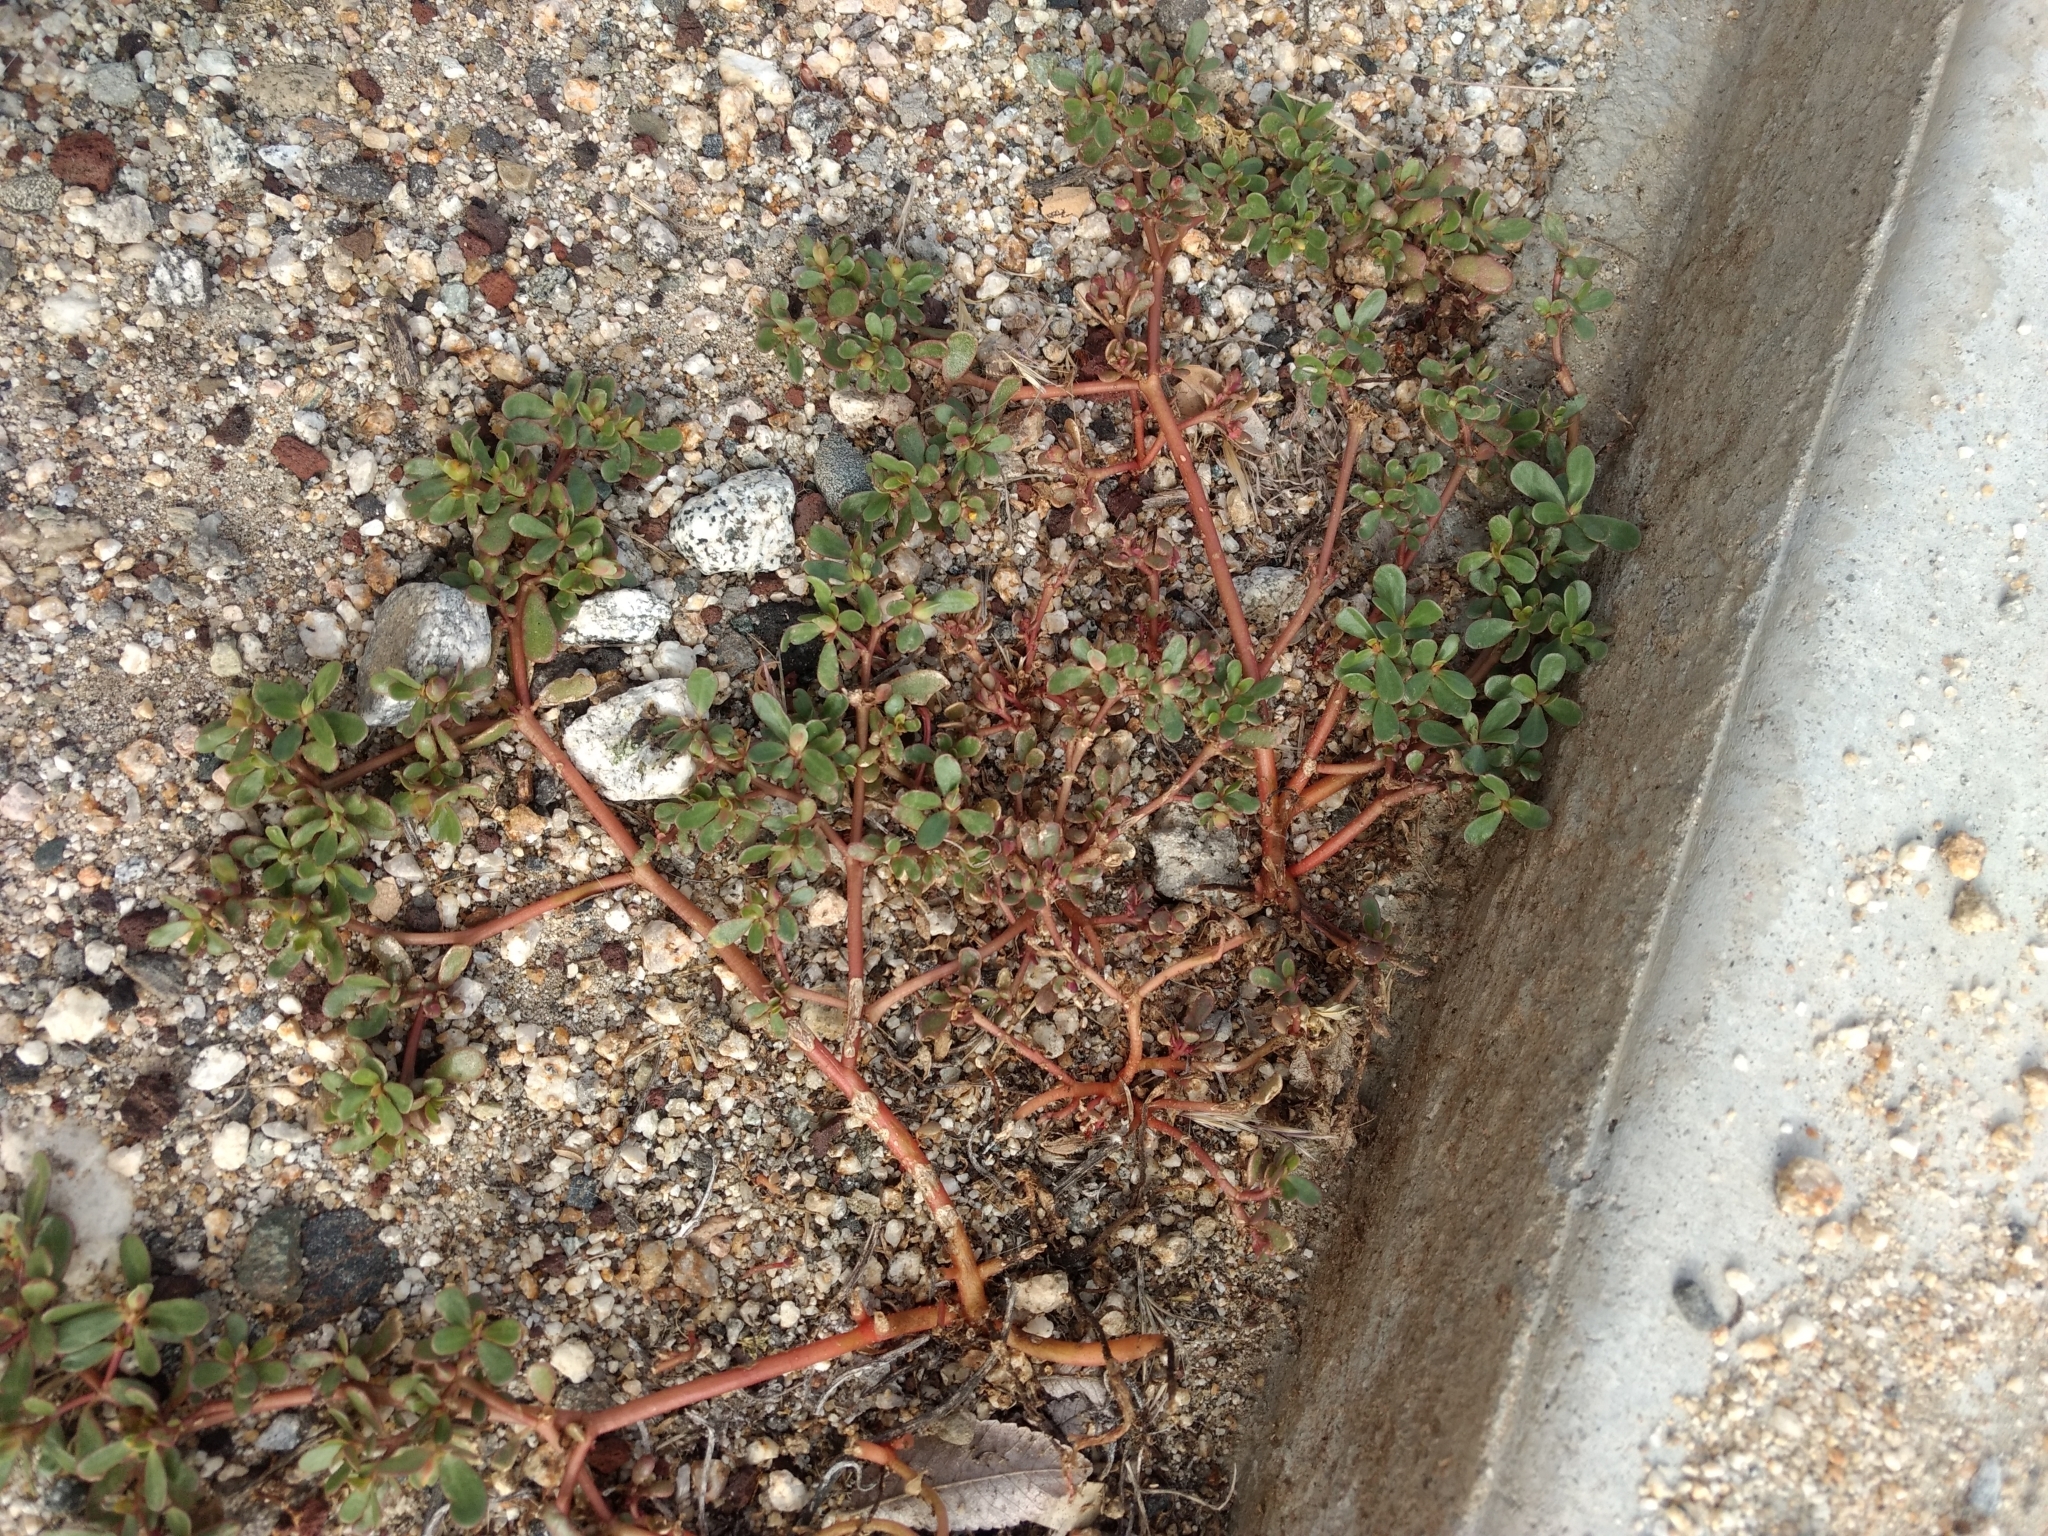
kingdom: Plantae
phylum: Tracheophyta
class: Magnoliopsida
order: Caryophyllales
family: Portulacaceae
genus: Portulaca
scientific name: Portulaca oleracea
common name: Common purslane
